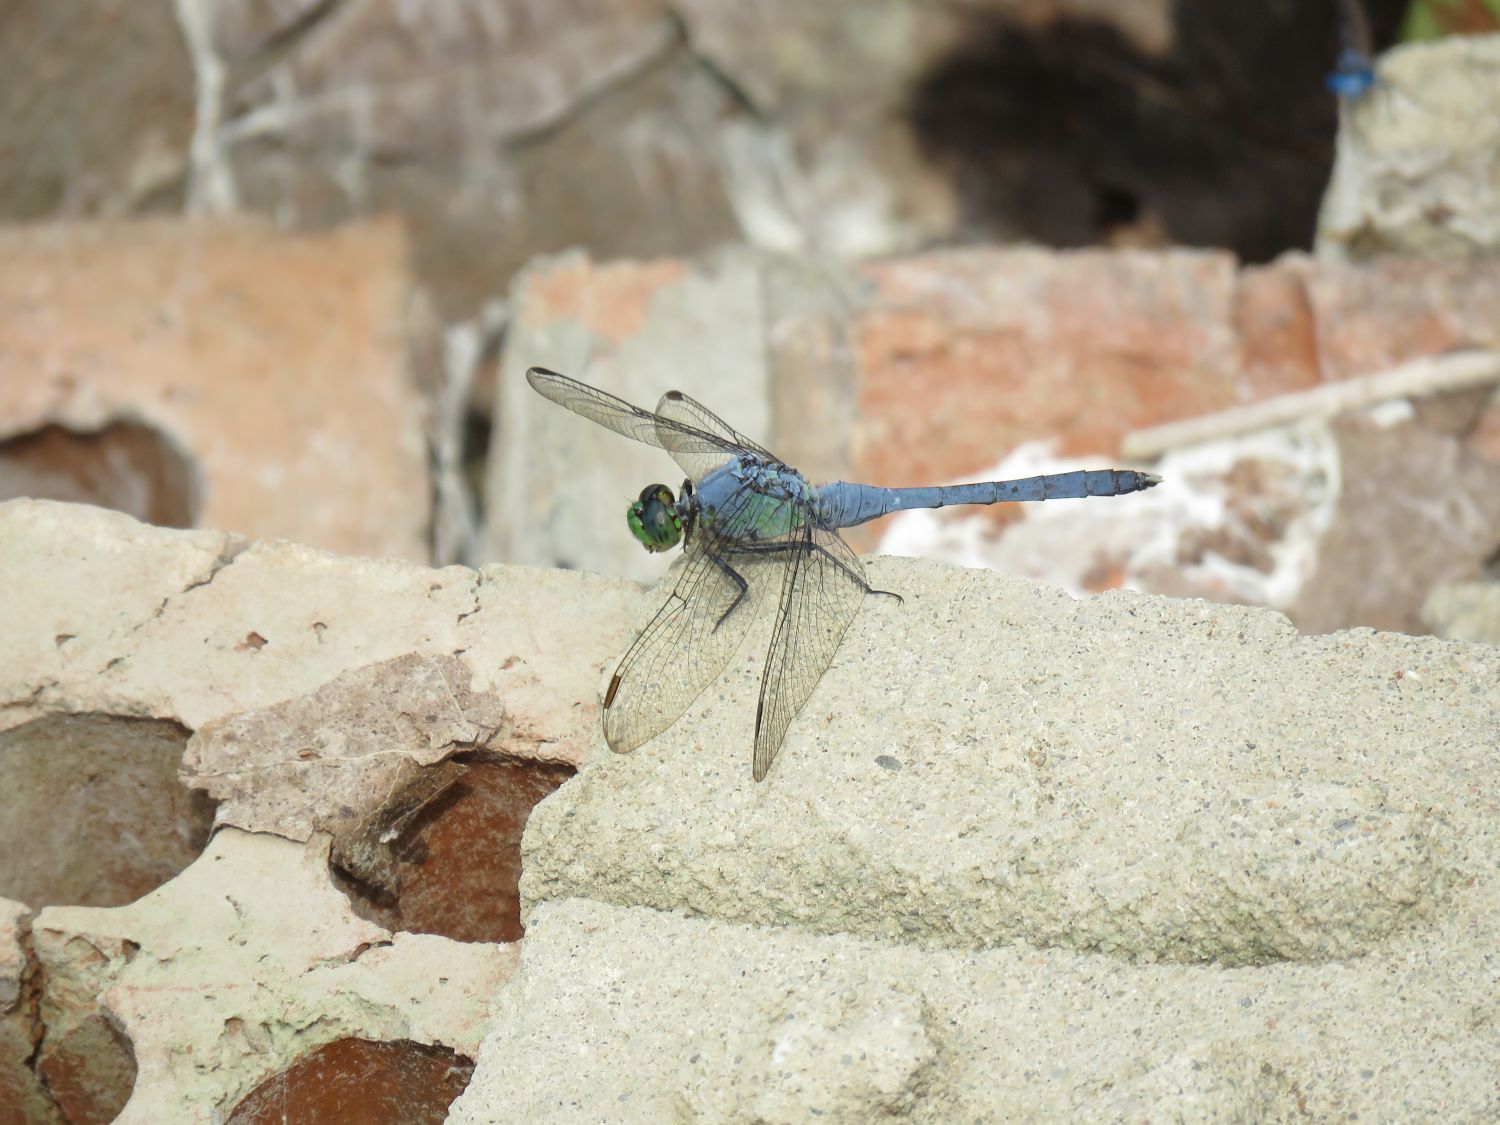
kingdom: Animalia
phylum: Arthropoda
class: Insecta
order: Odonata
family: Libellulidae
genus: Erythemis
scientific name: Erythemis simplicicollis
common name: Eastern pondhawk
